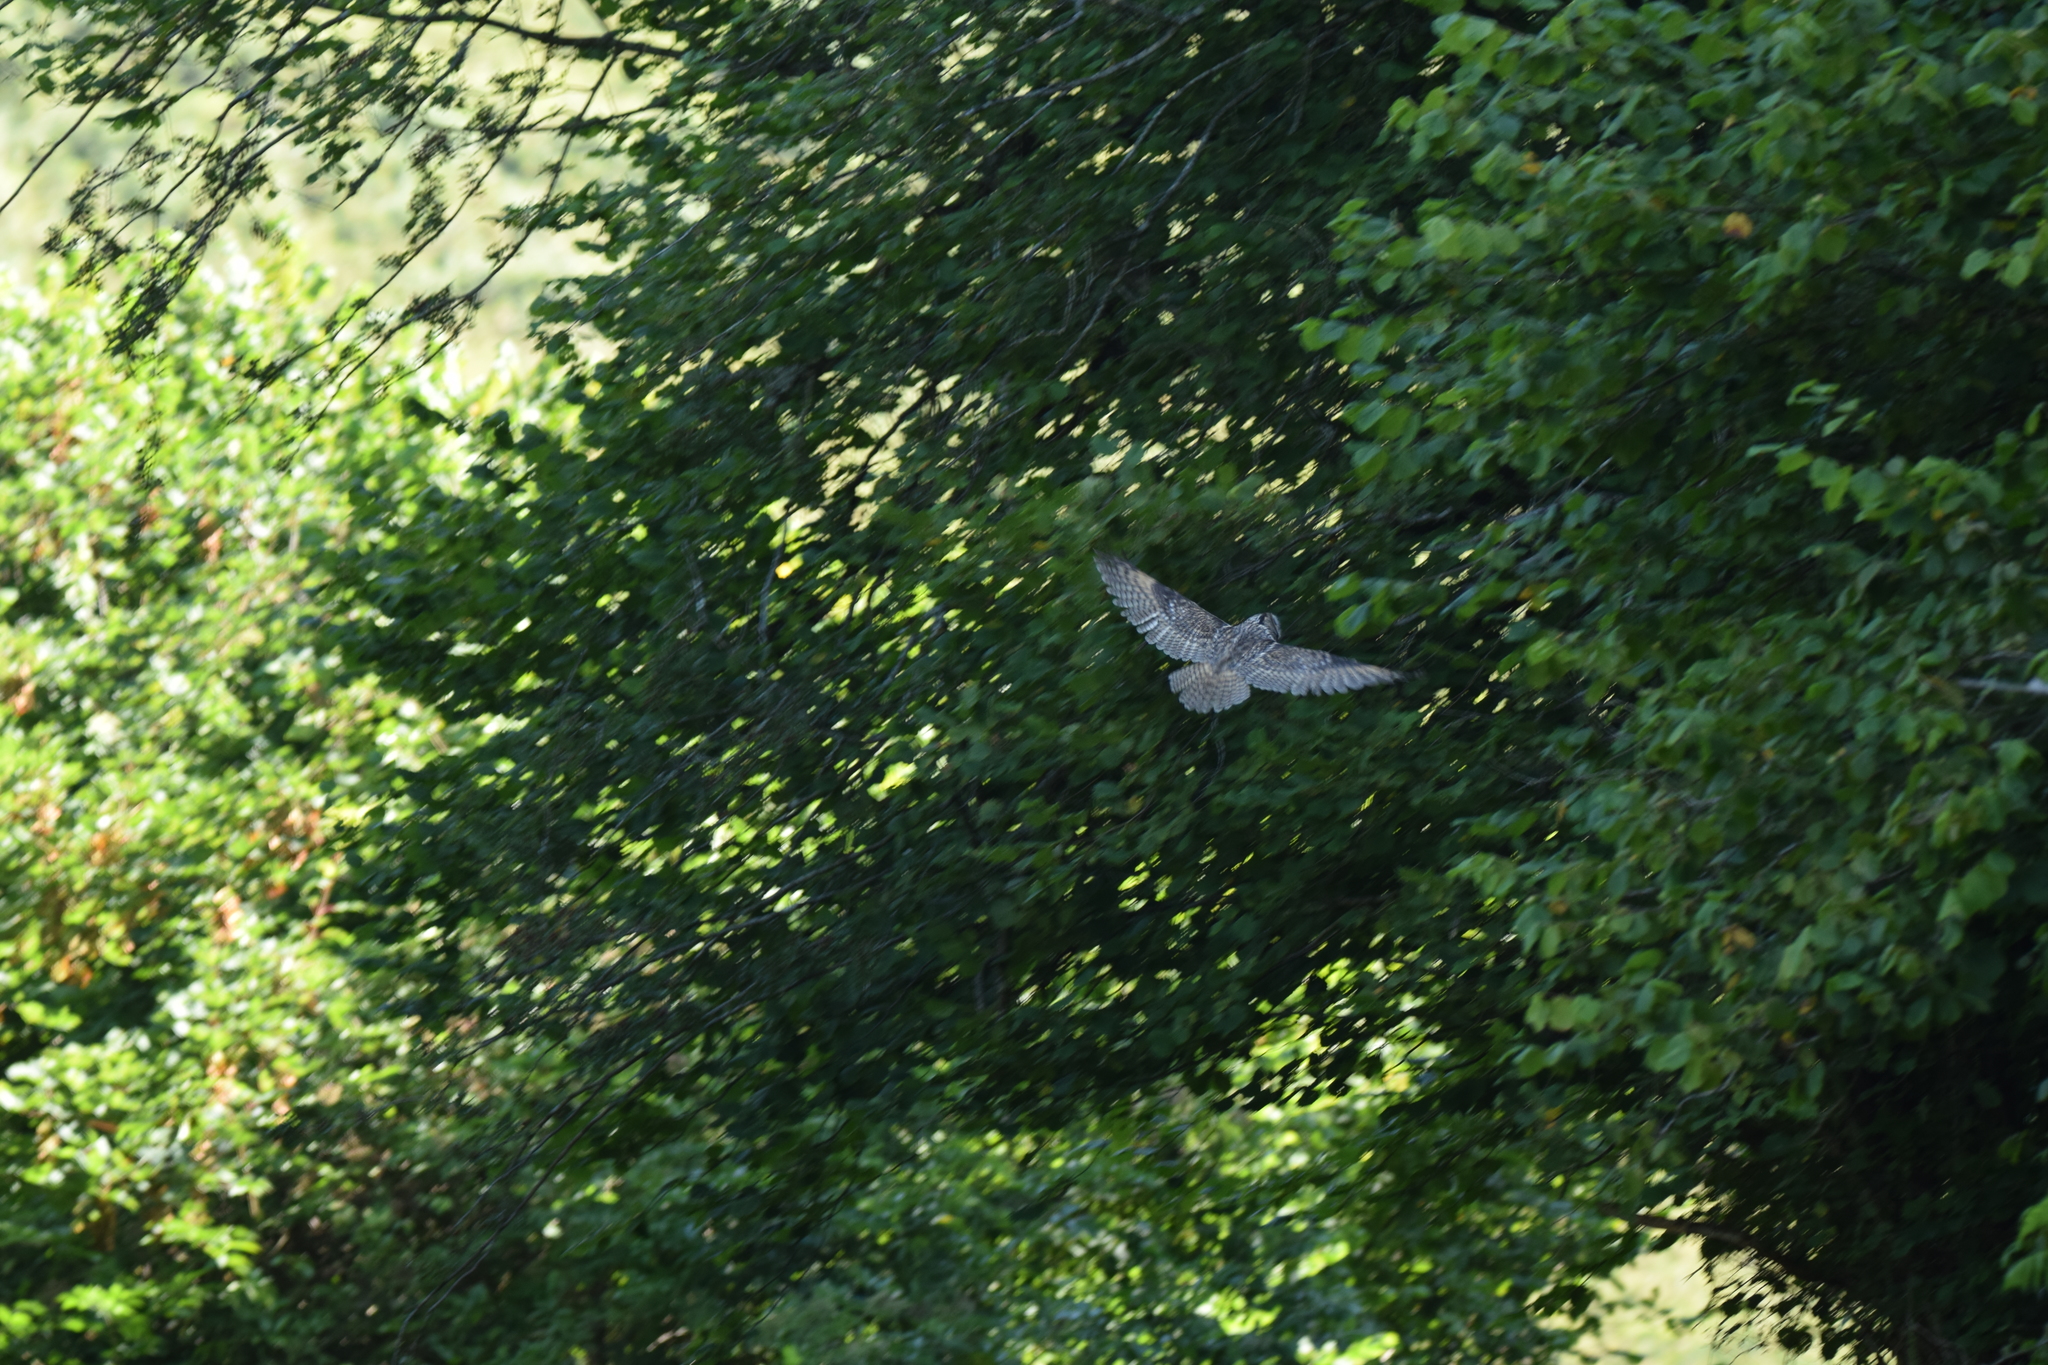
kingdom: Animalia
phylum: Chordata
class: Aves
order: Strigiformes
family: Strigidae
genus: Asio
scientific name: Asio otus
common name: Long-eared owl
